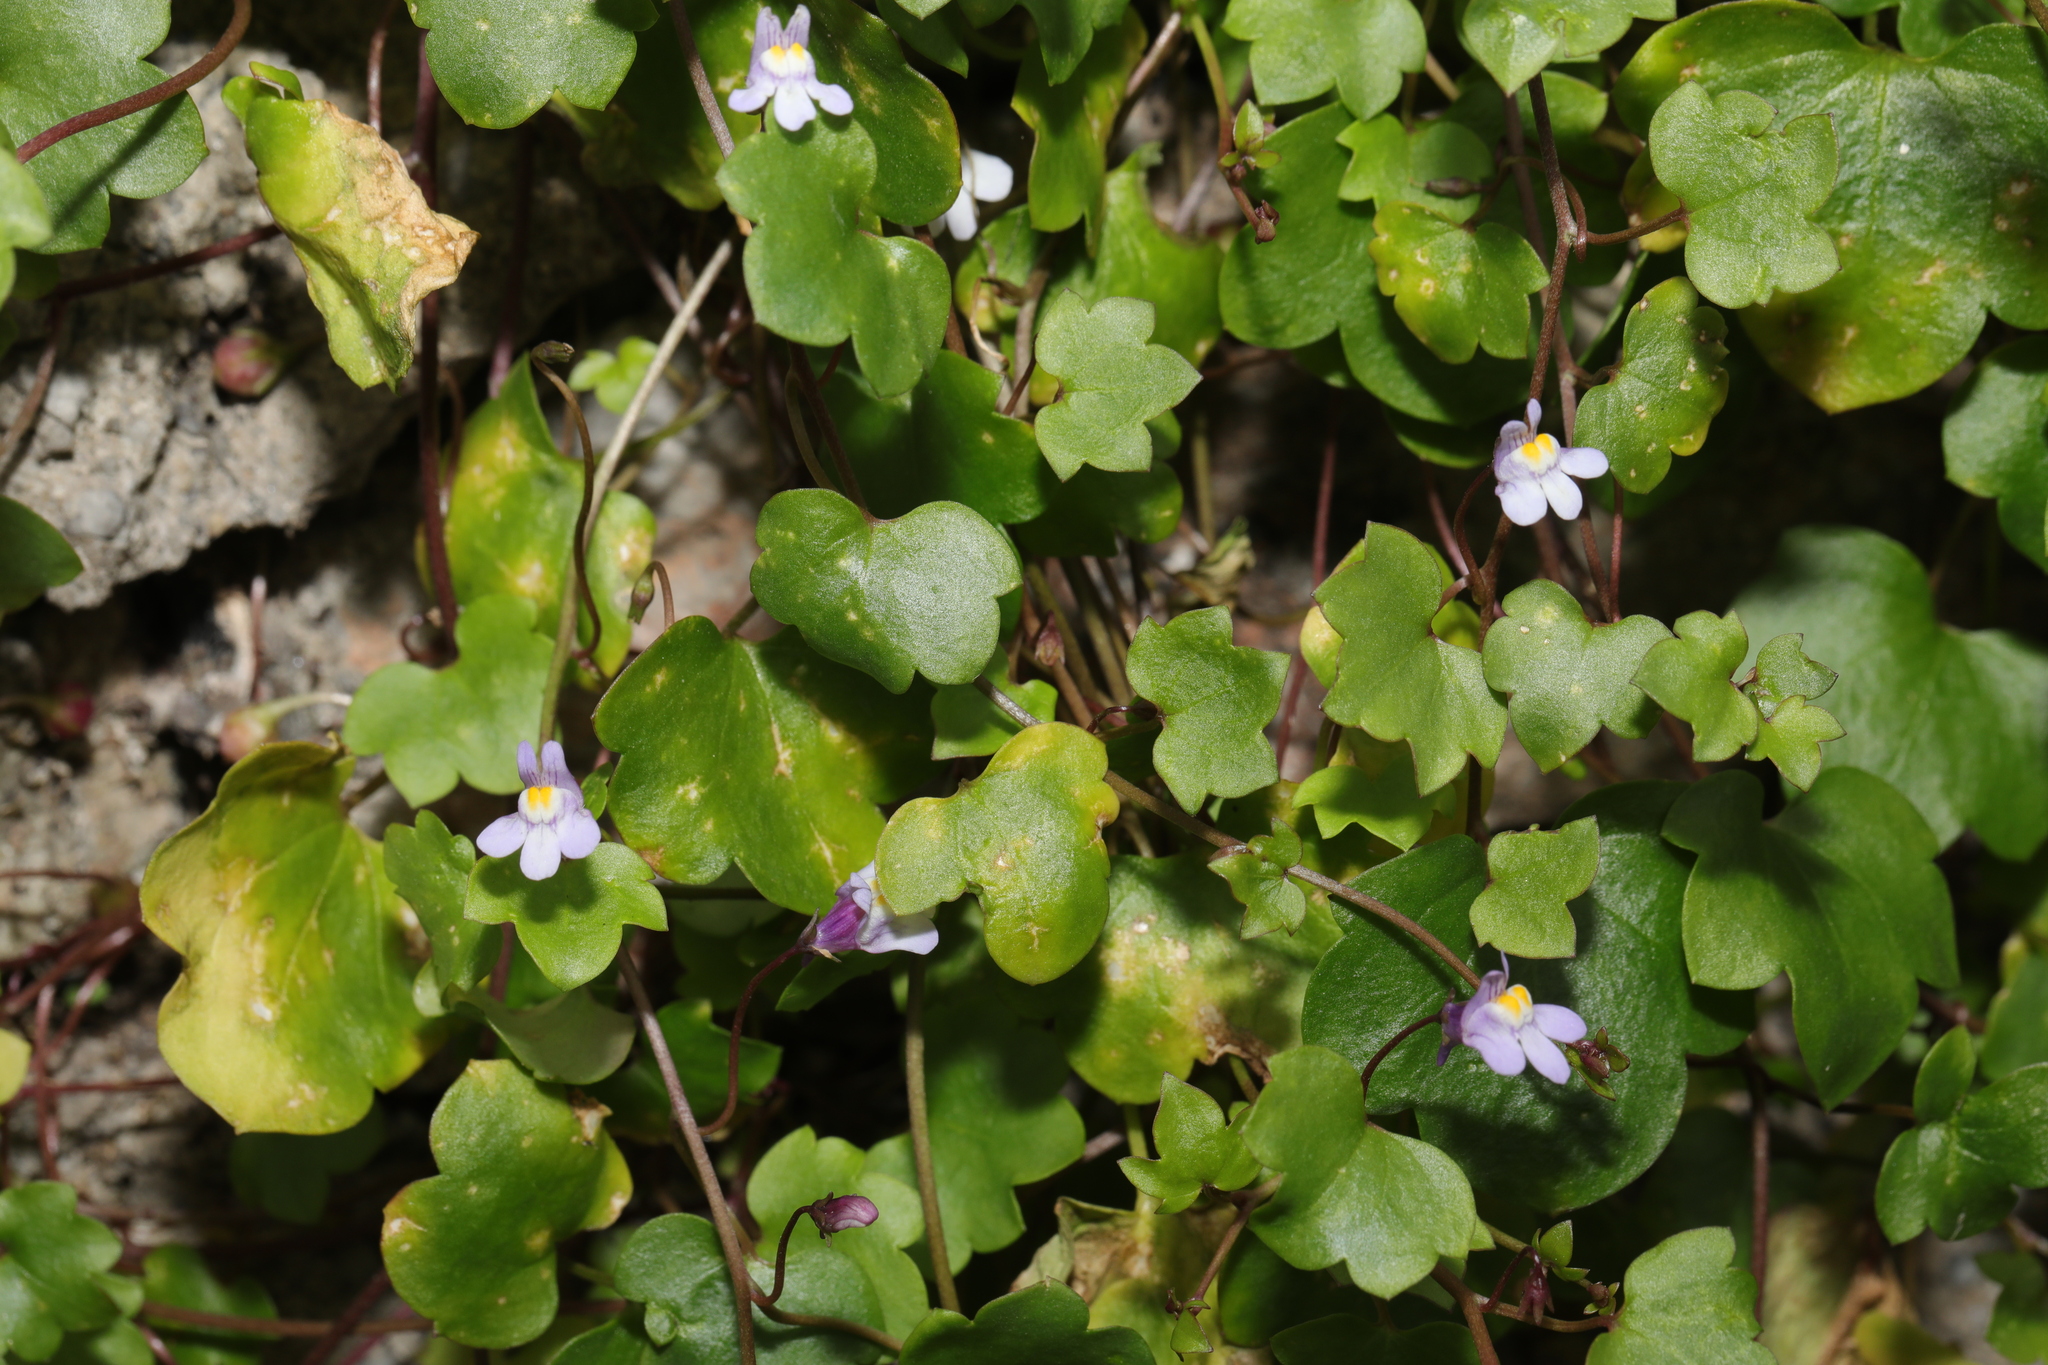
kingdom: Plantae
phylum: Tracheophyta
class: Magnoliopsida
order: Lamiales
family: Plantaginaceae
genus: Cymbalaria
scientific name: Cymbalaria muralis
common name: Ivy-leaved toadflax
